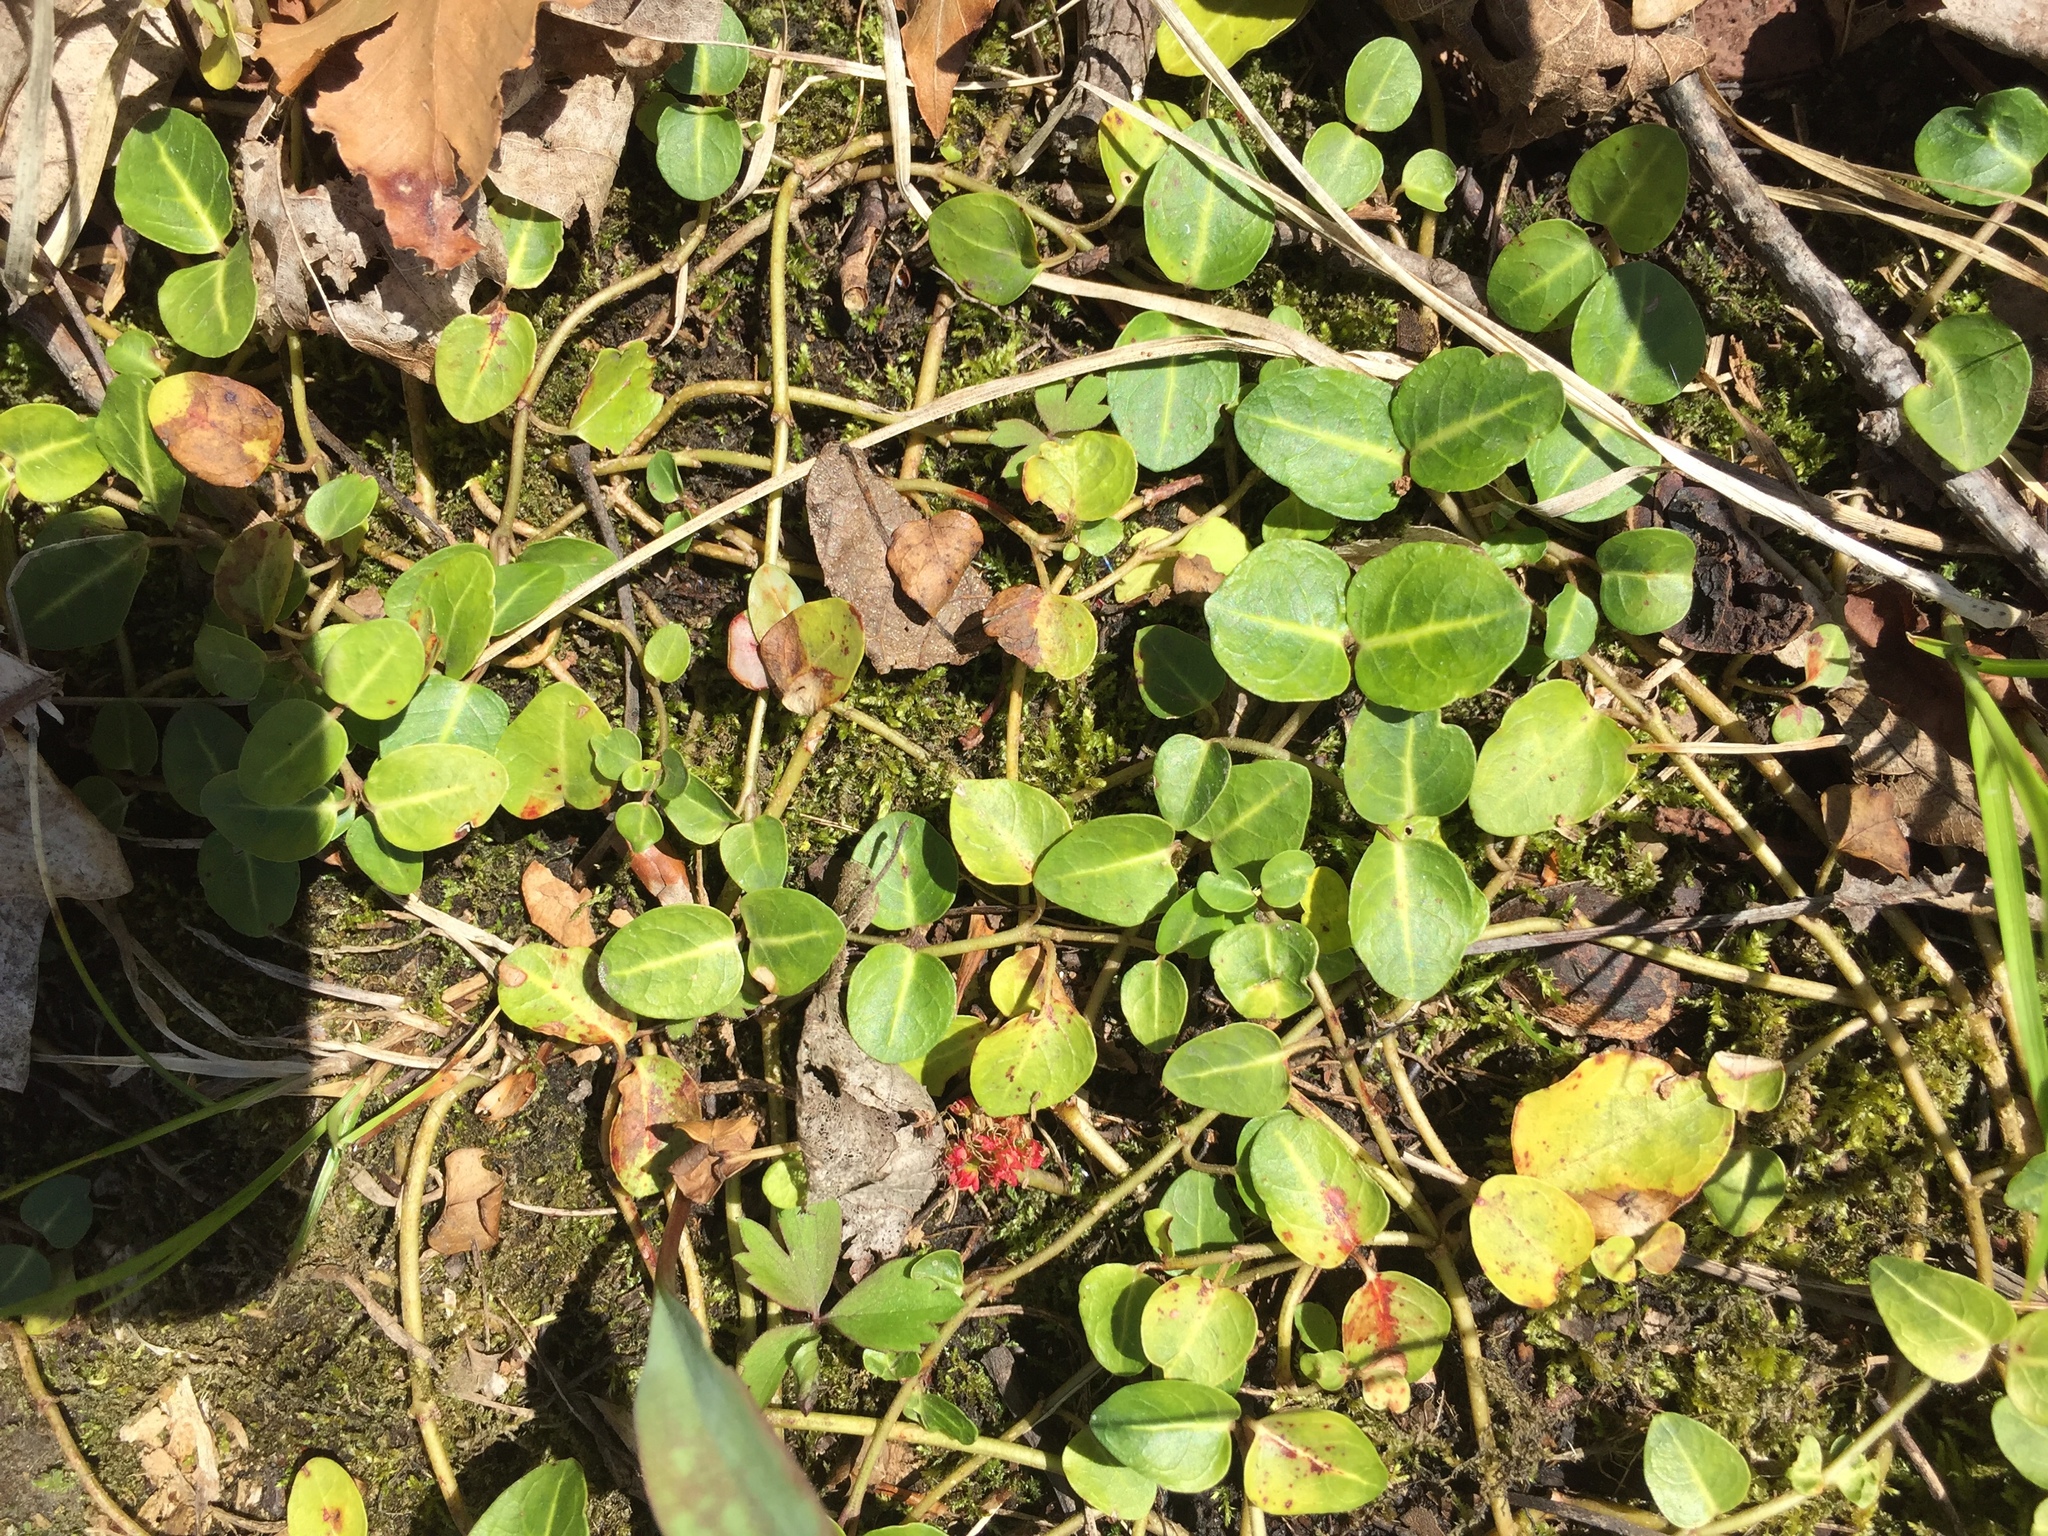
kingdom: Plantae
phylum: Tracheophyta
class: Magnoliopsida
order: Gentianales
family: Rubiaceae
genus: Mitchella
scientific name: Mitchella repens
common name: Partridge-berry
